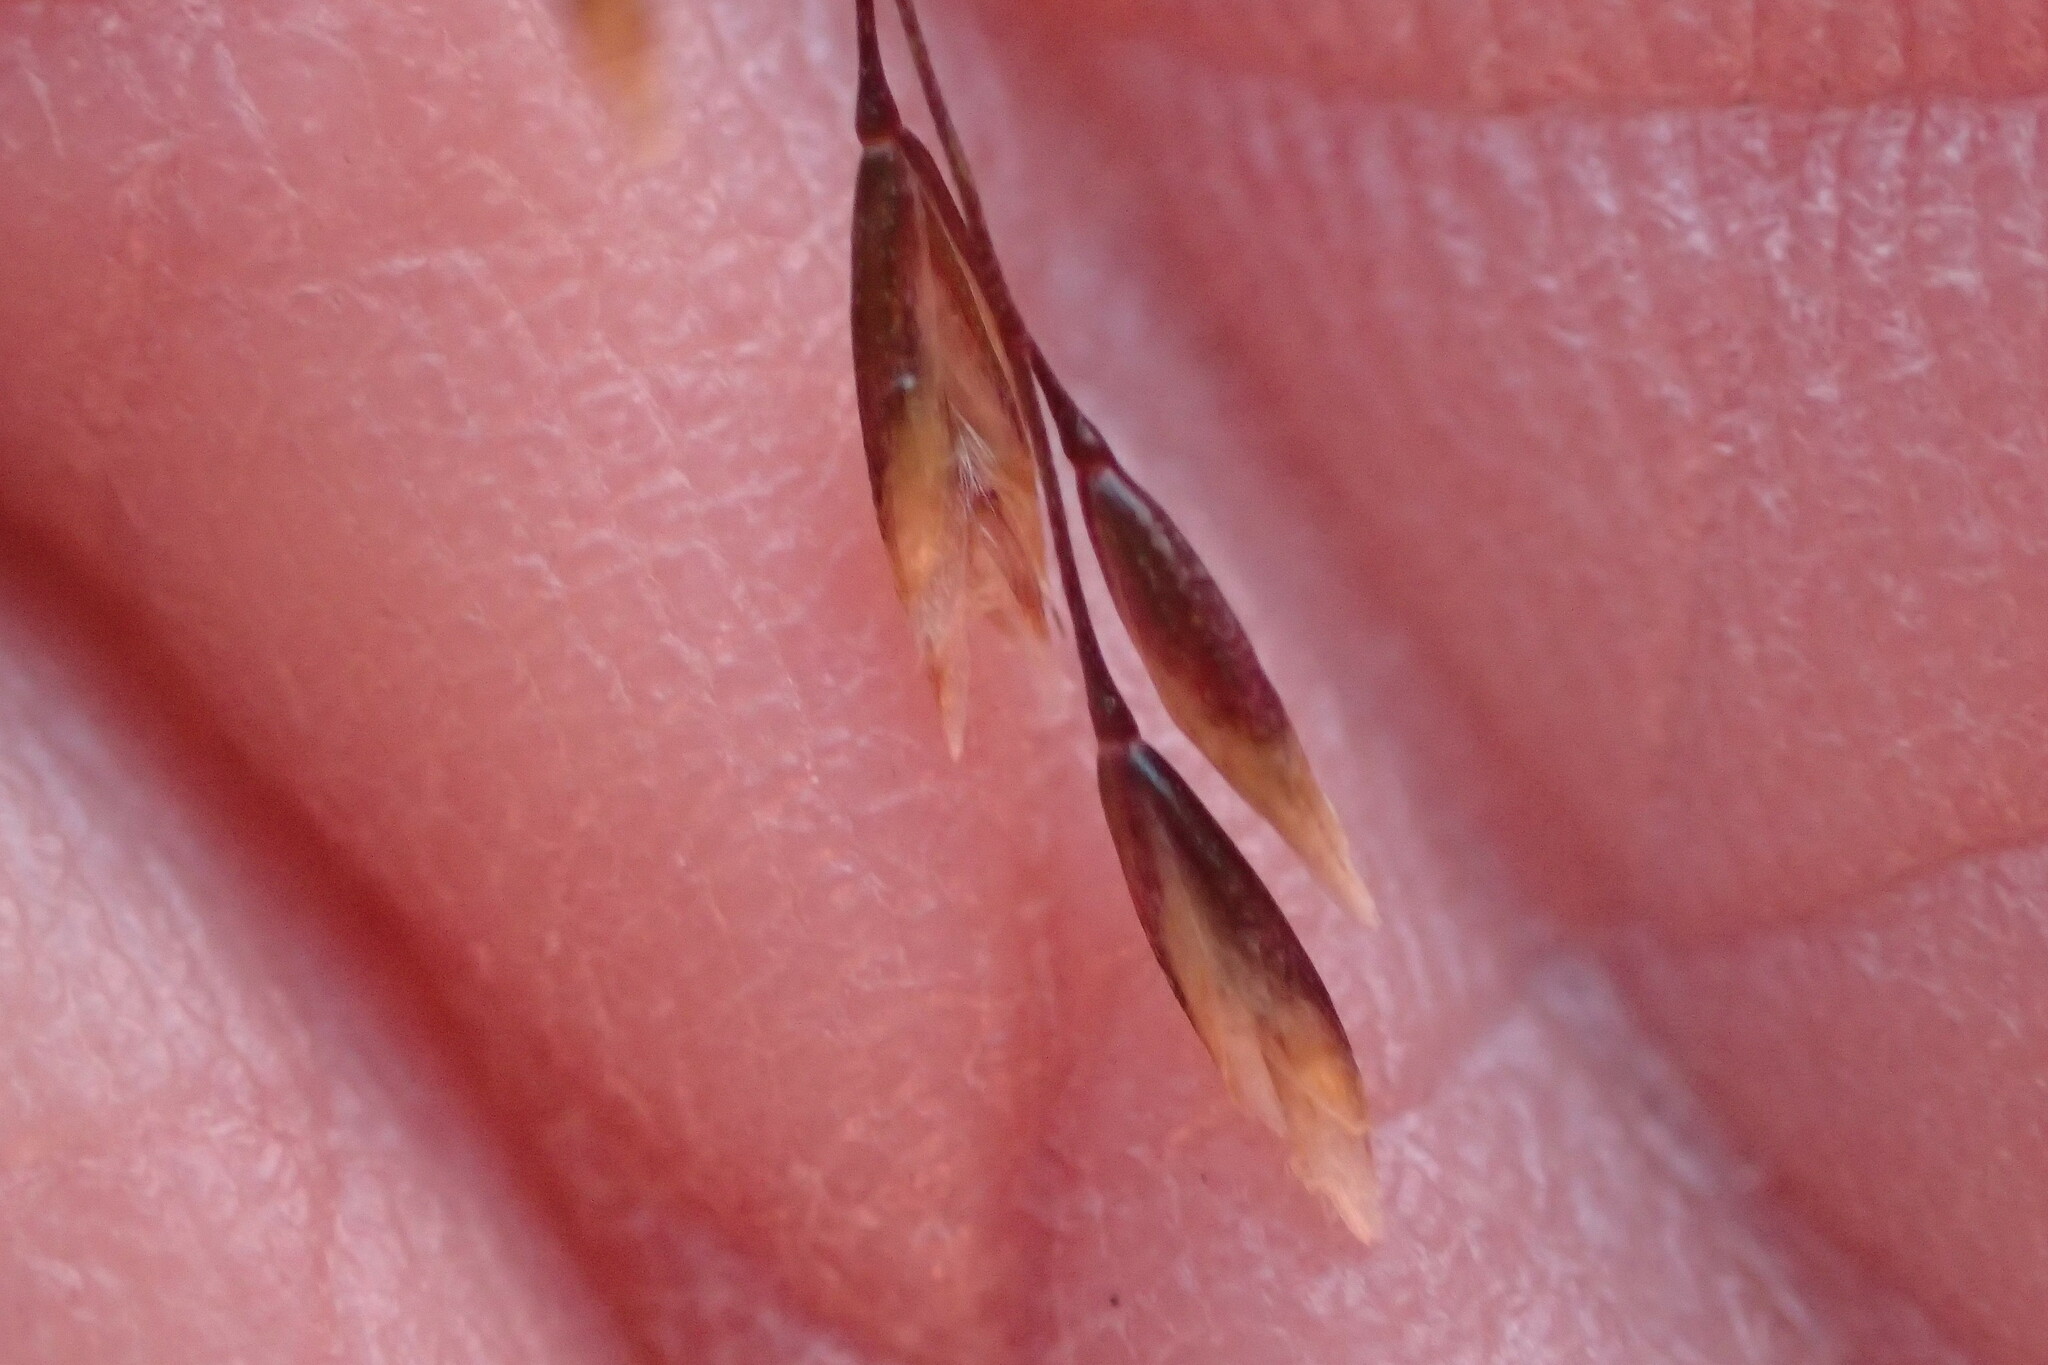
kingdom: Plantae
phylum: Tracheophyta
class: Liliopsida
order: Poales
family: Poaceae
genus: Deschampsia
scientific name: Deschampsia cespitosa
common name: Tufted hair-grass
